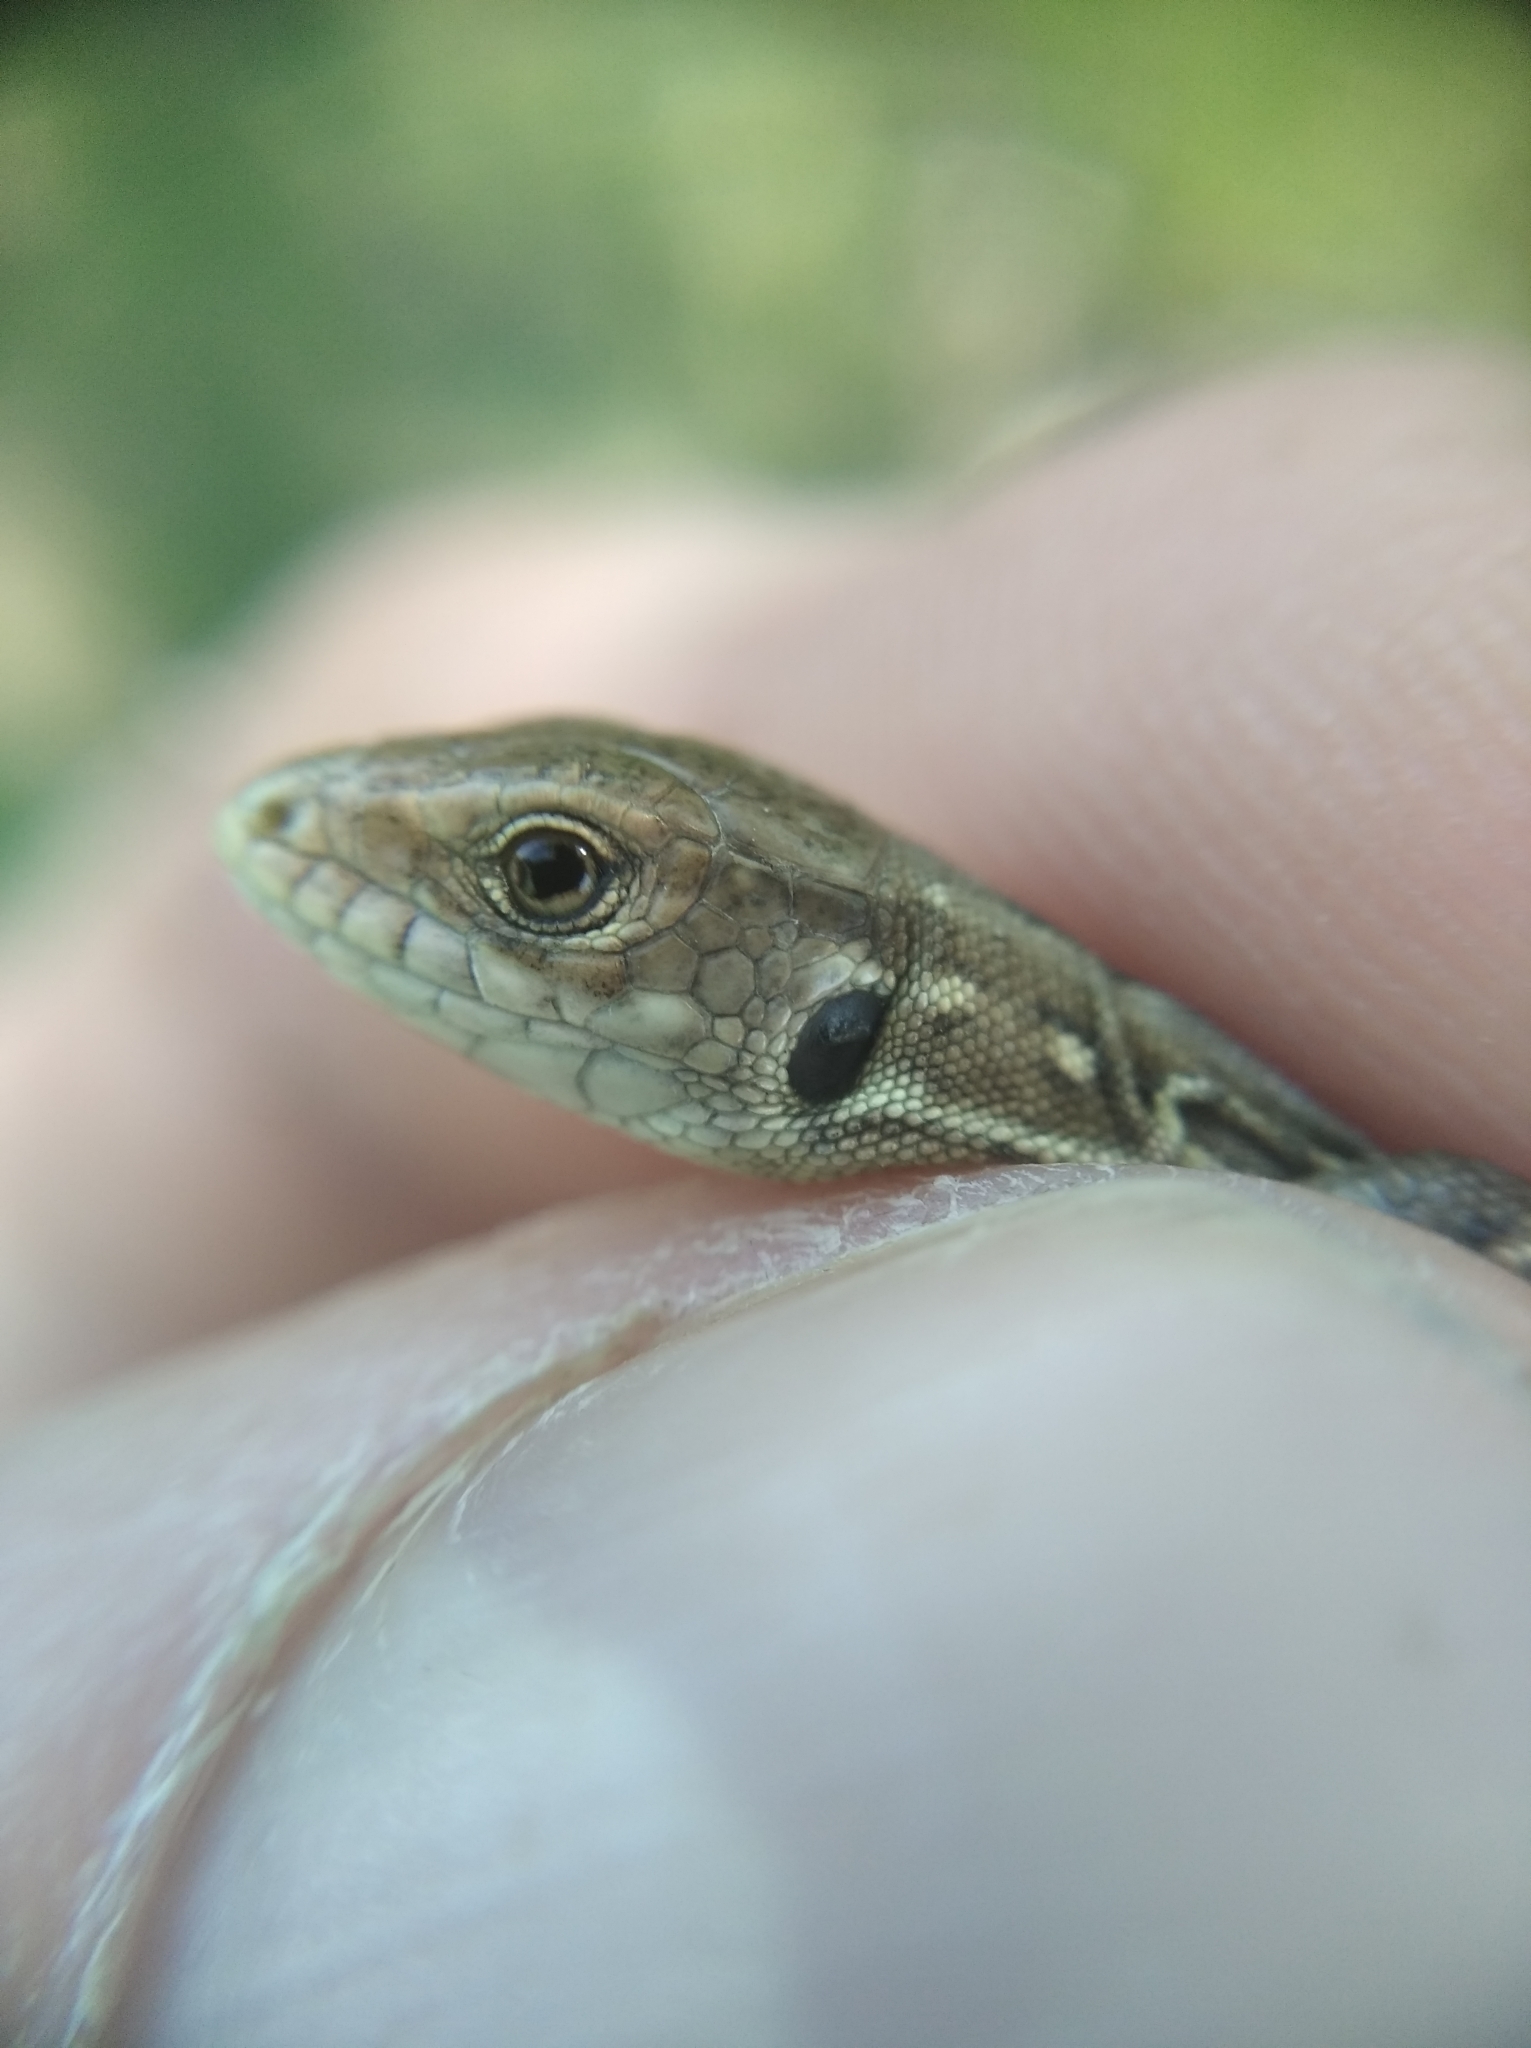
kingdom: Animalia
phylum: Chordata
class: Squamata
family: Lacertidae
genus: Lacerta
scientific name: Lacerta agilis
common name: Sand lizard
